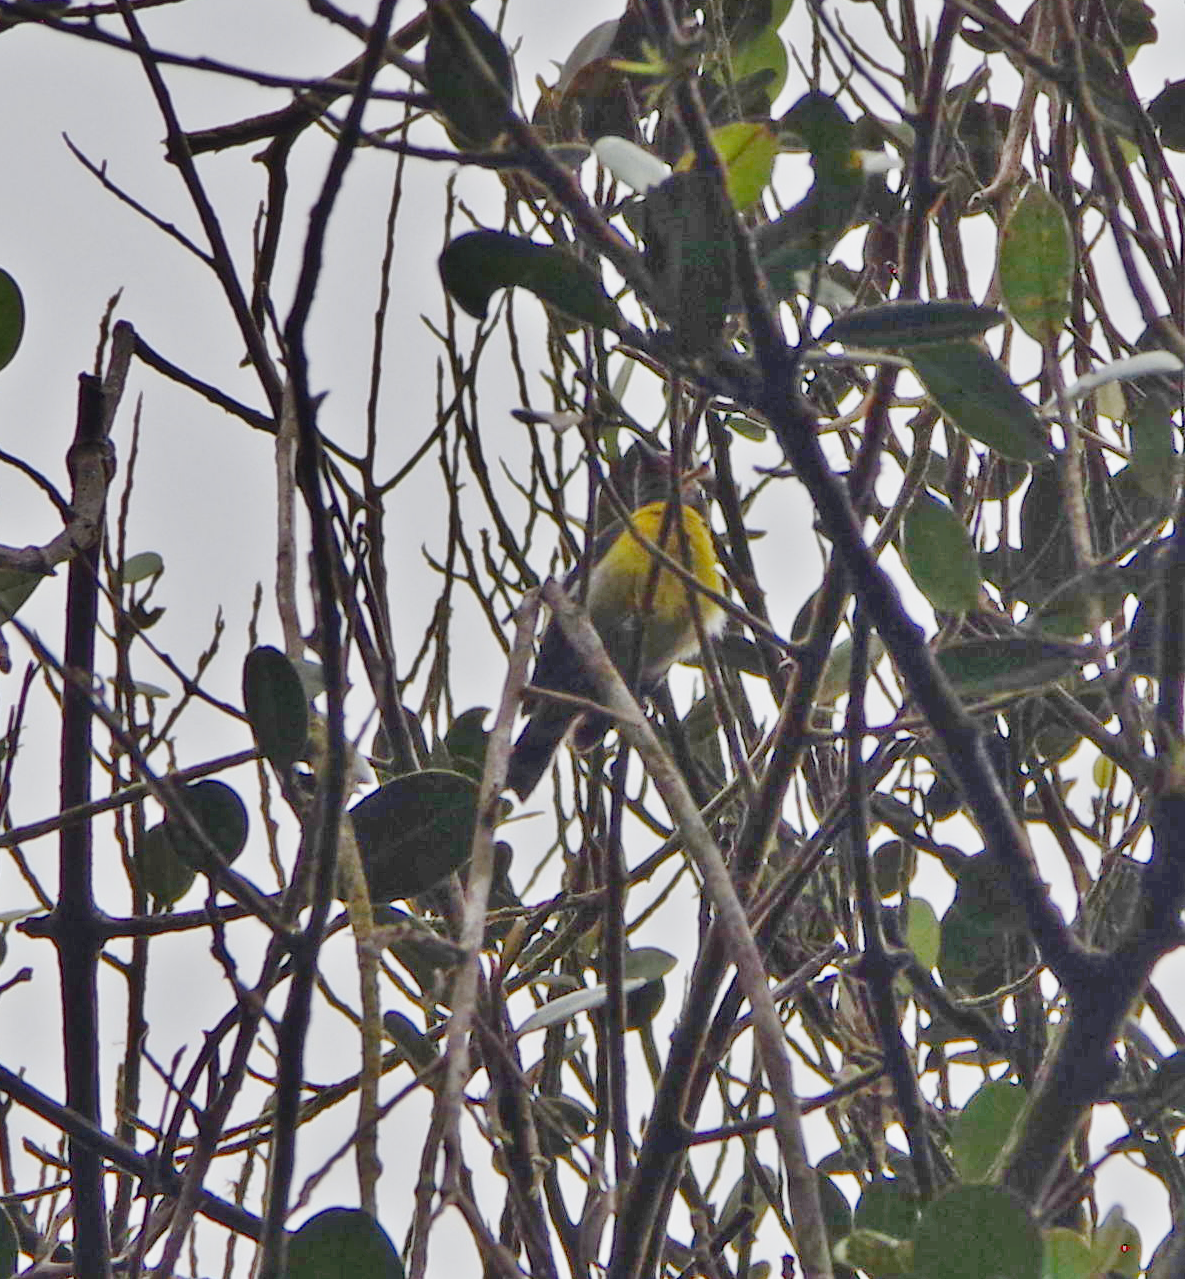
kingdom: Animalia
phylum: Chordata
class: Aves
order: Passeriformes
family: Parulidae
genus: Setophaga
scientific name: Setophaga americana
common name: Northern parula
